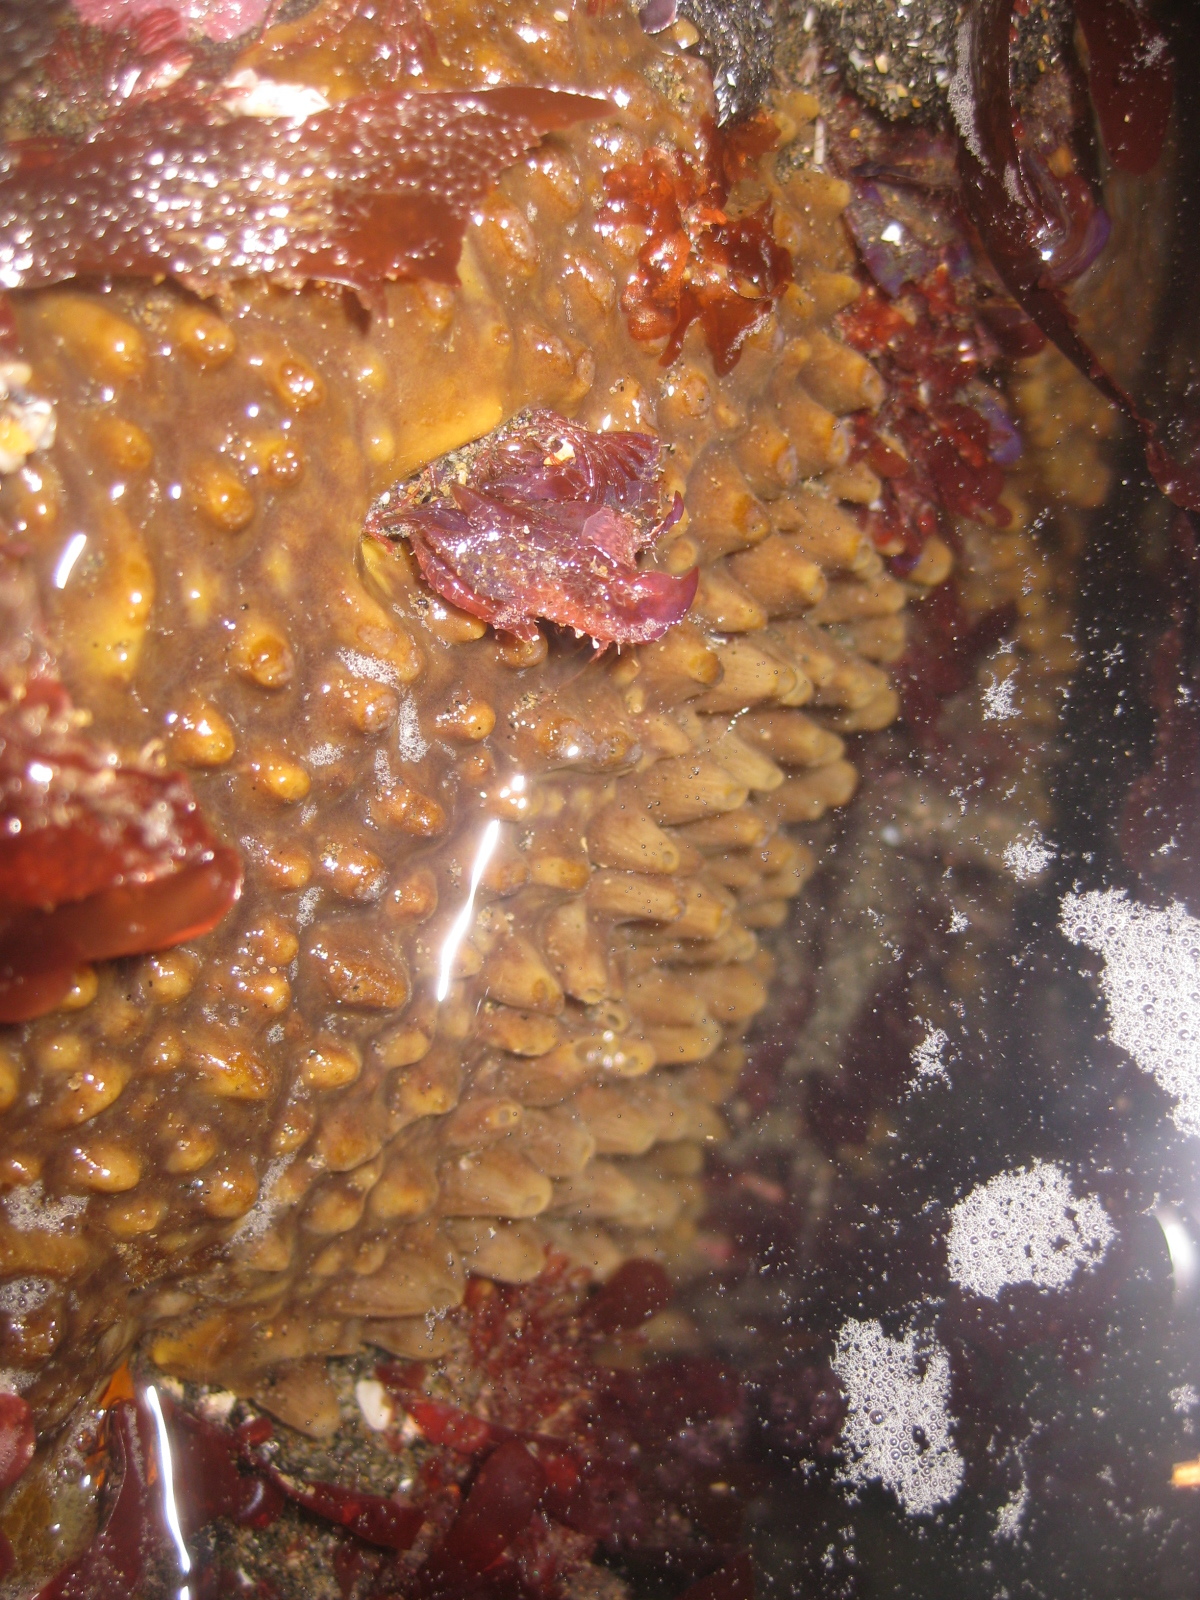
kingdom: Animalia
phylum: Porifera
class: Demospongiae
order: Polymastiida
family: Polymastiidae
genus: Polymastia
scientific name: Polymastia fusca
